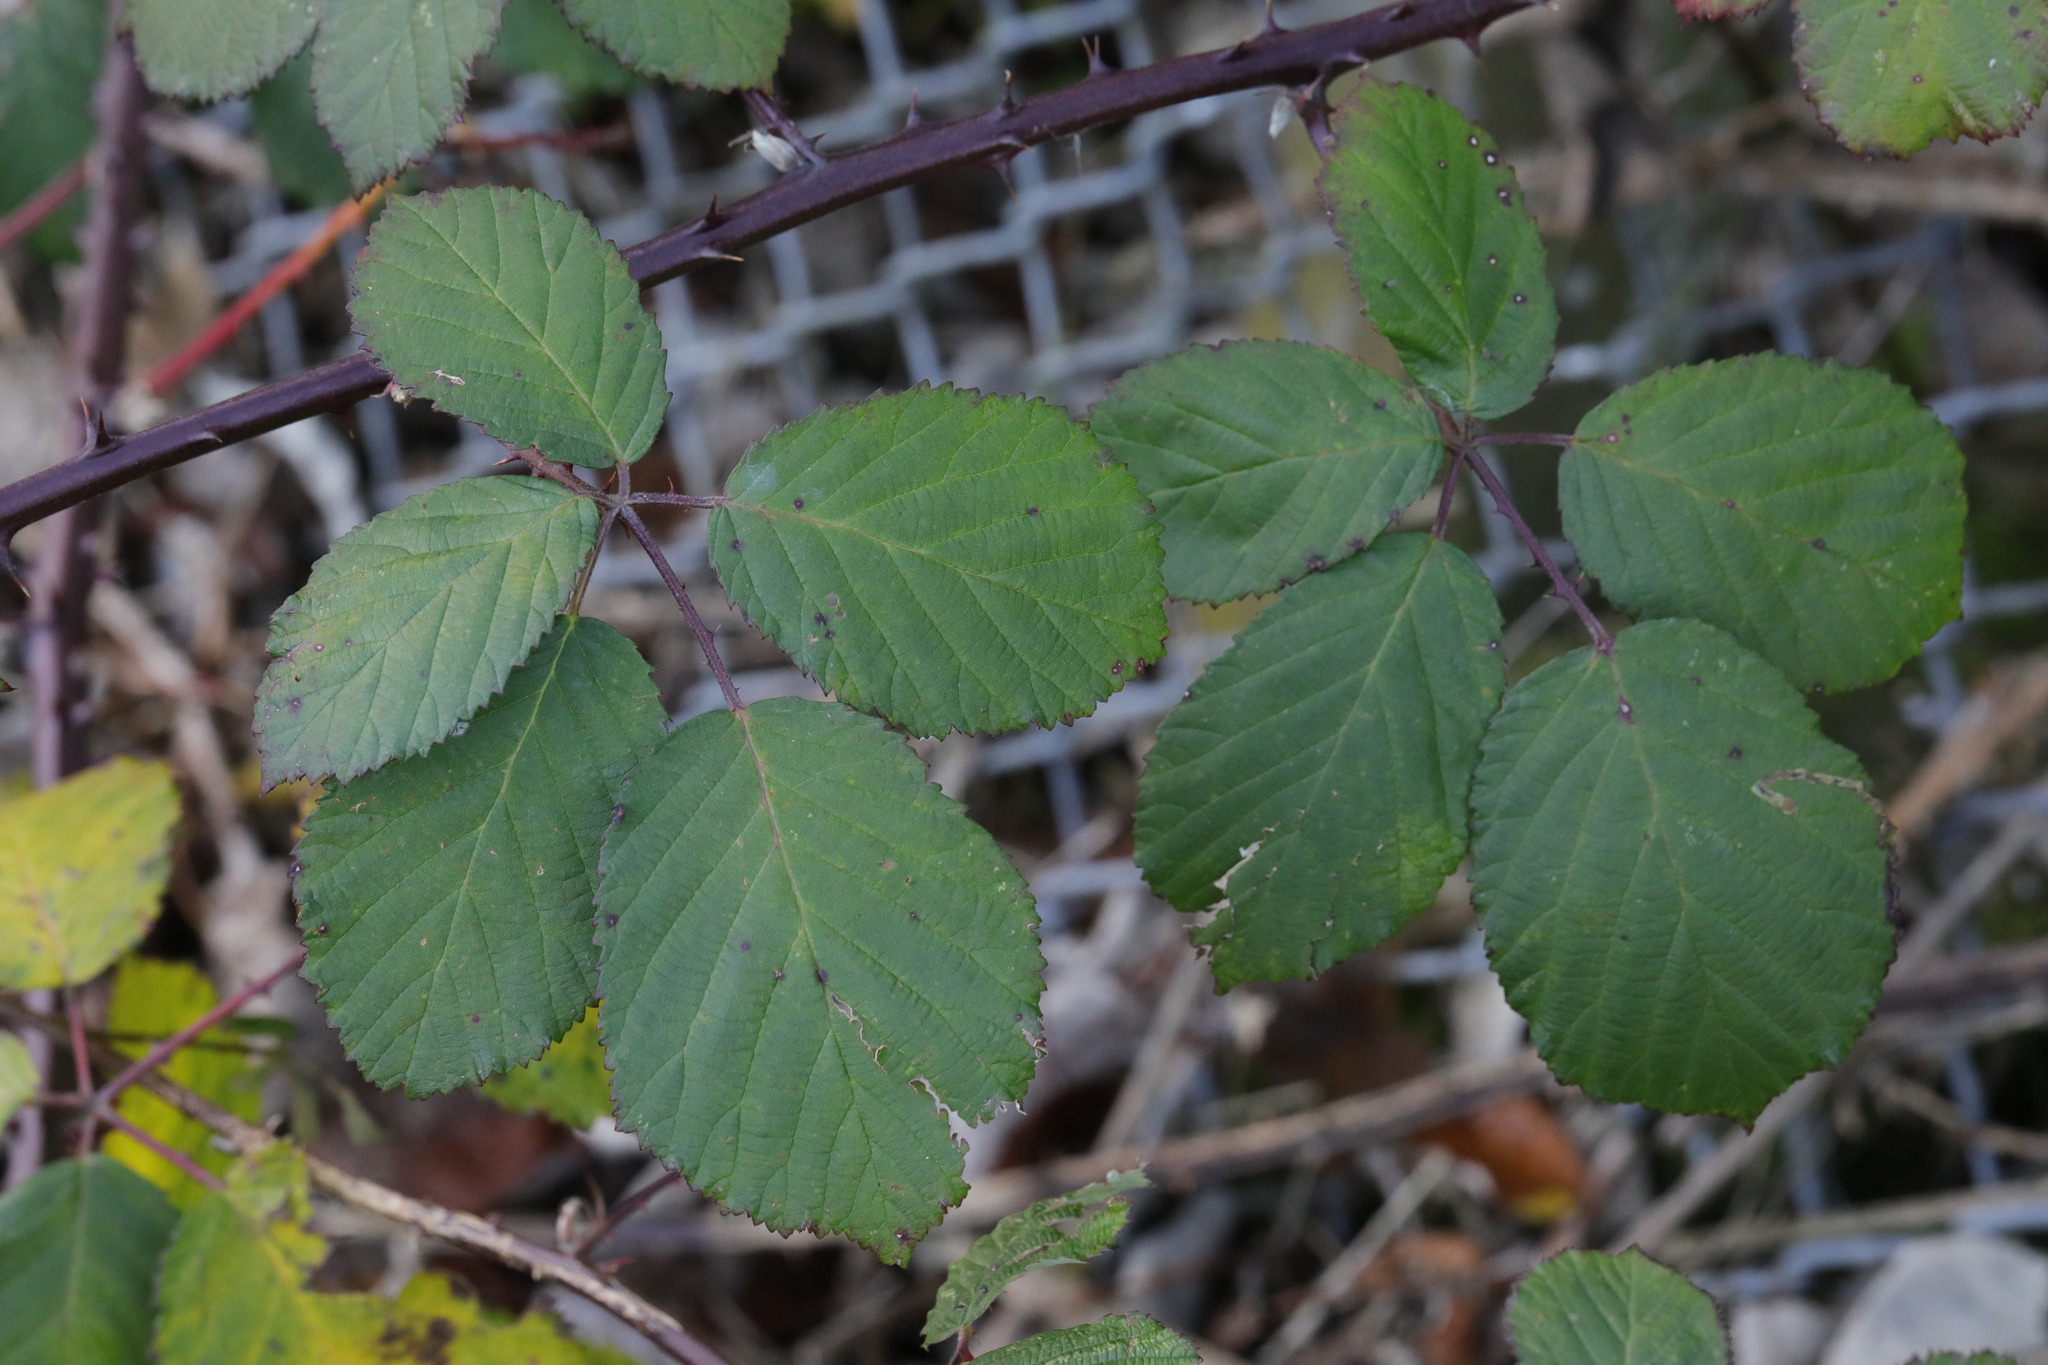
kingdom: Plantae
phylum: Tracheophyta
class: Magnoliopsida
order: Rosales
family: Rosaceae
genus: Rubus
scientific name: Rubus armeniacus
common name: Himalayan blackberry
